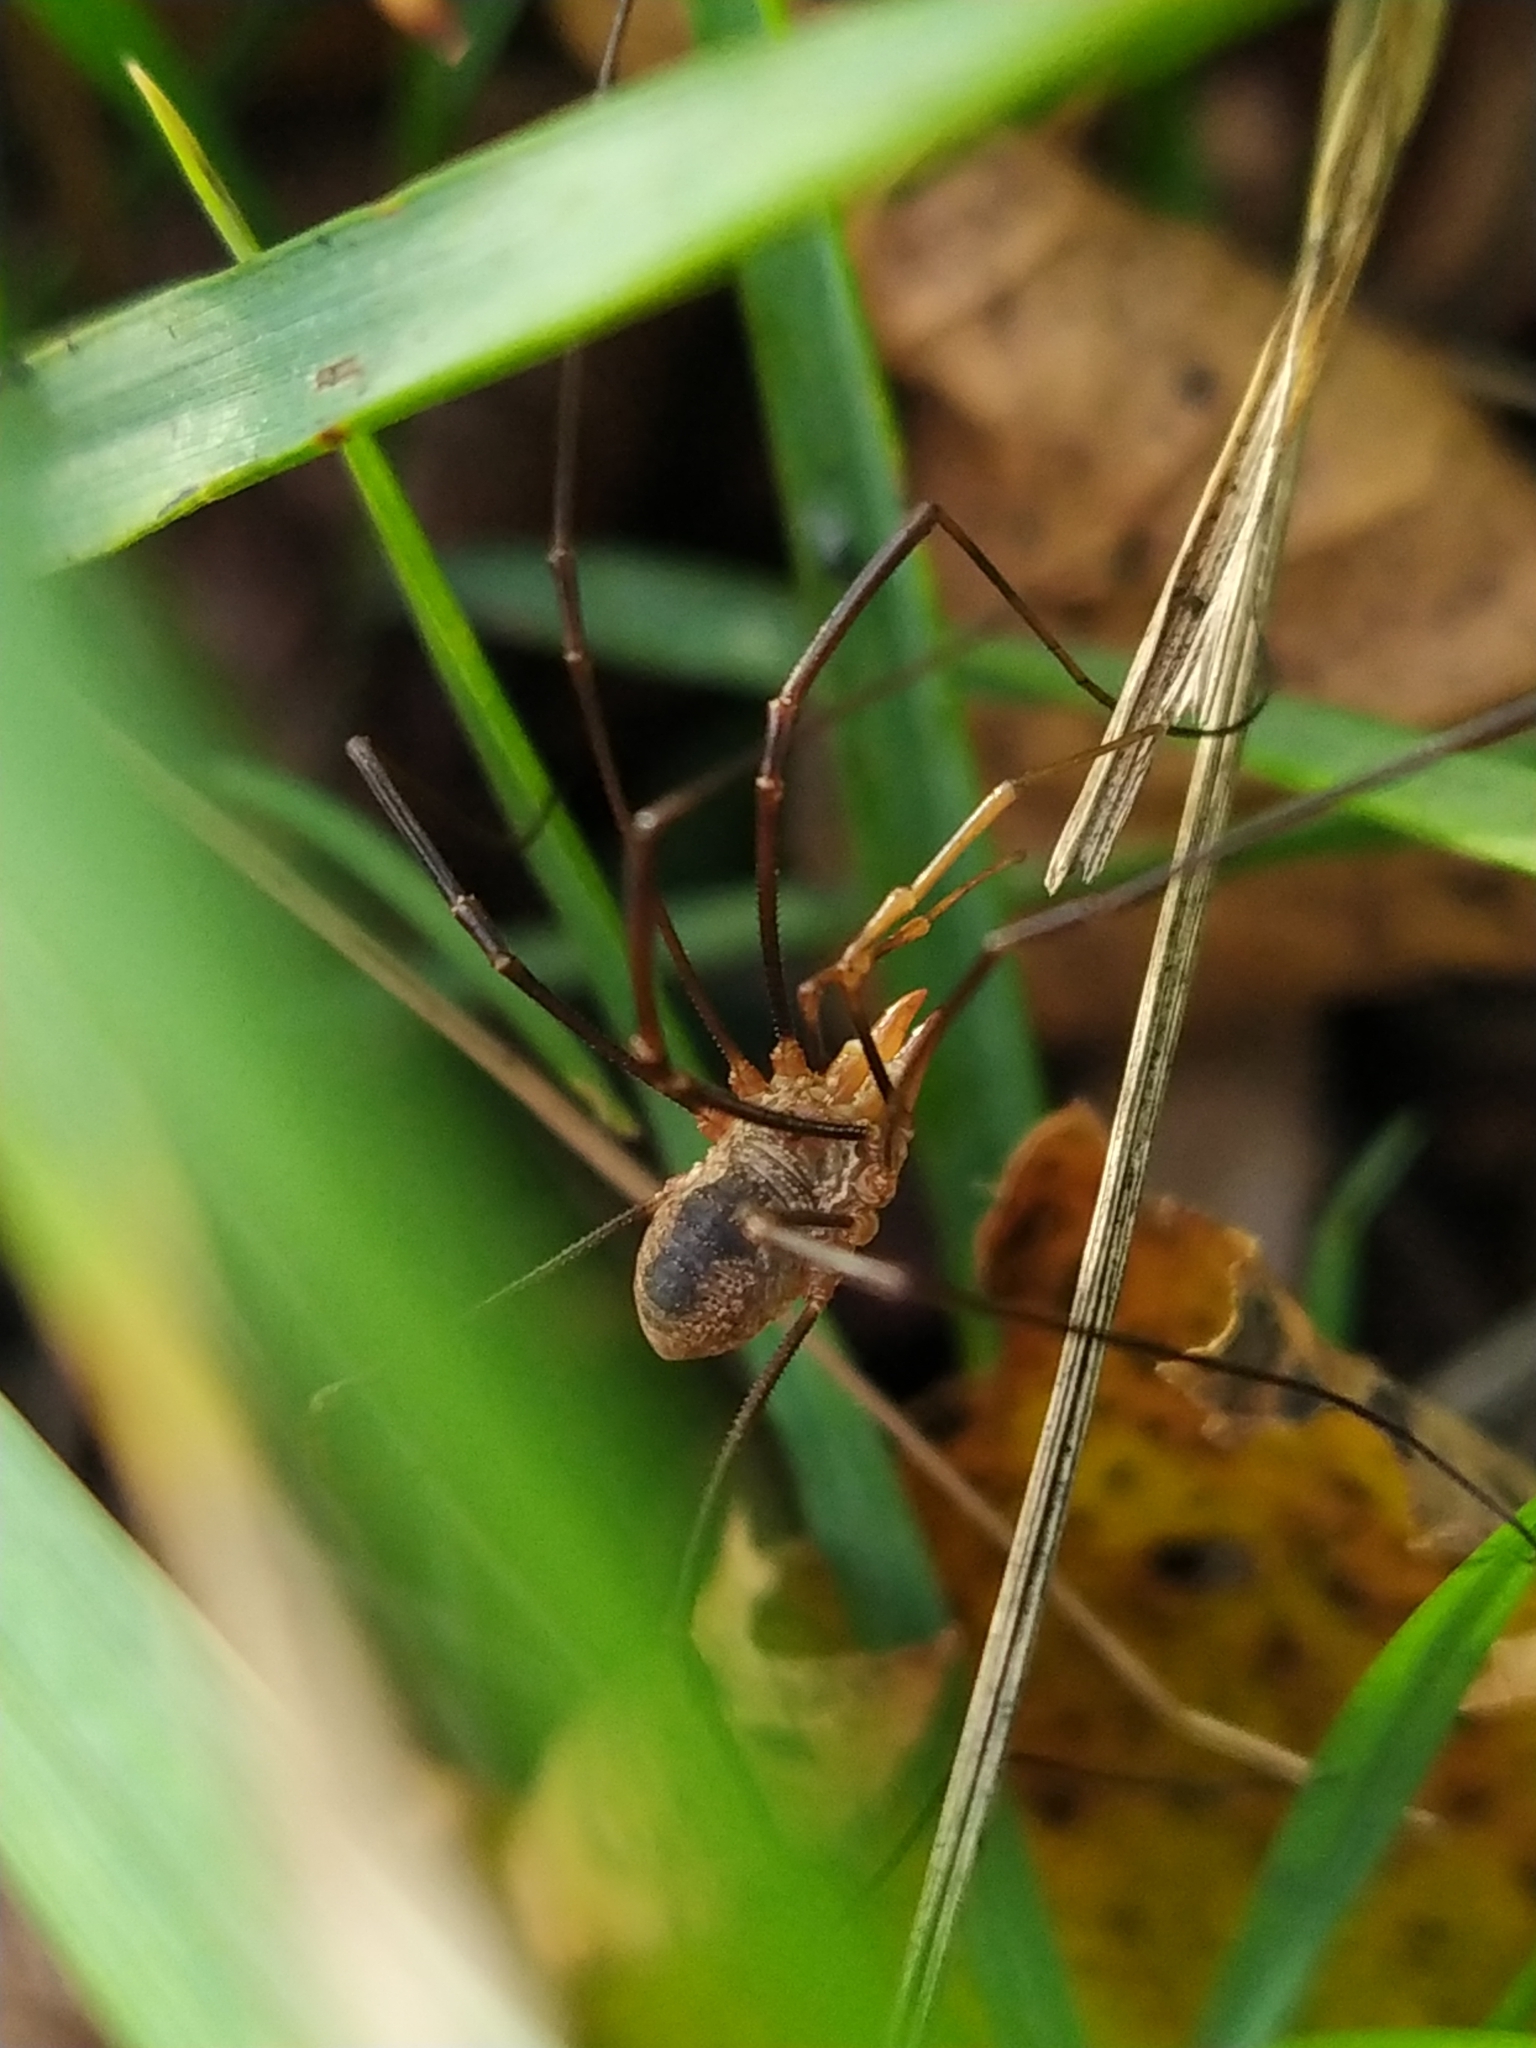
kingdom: Animalia
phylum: Arthropoda
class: Arachnida
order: Opiliones
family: Phalangiidae
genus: Phalangium
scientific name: Phalangium opilio
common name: Daddy longleg
